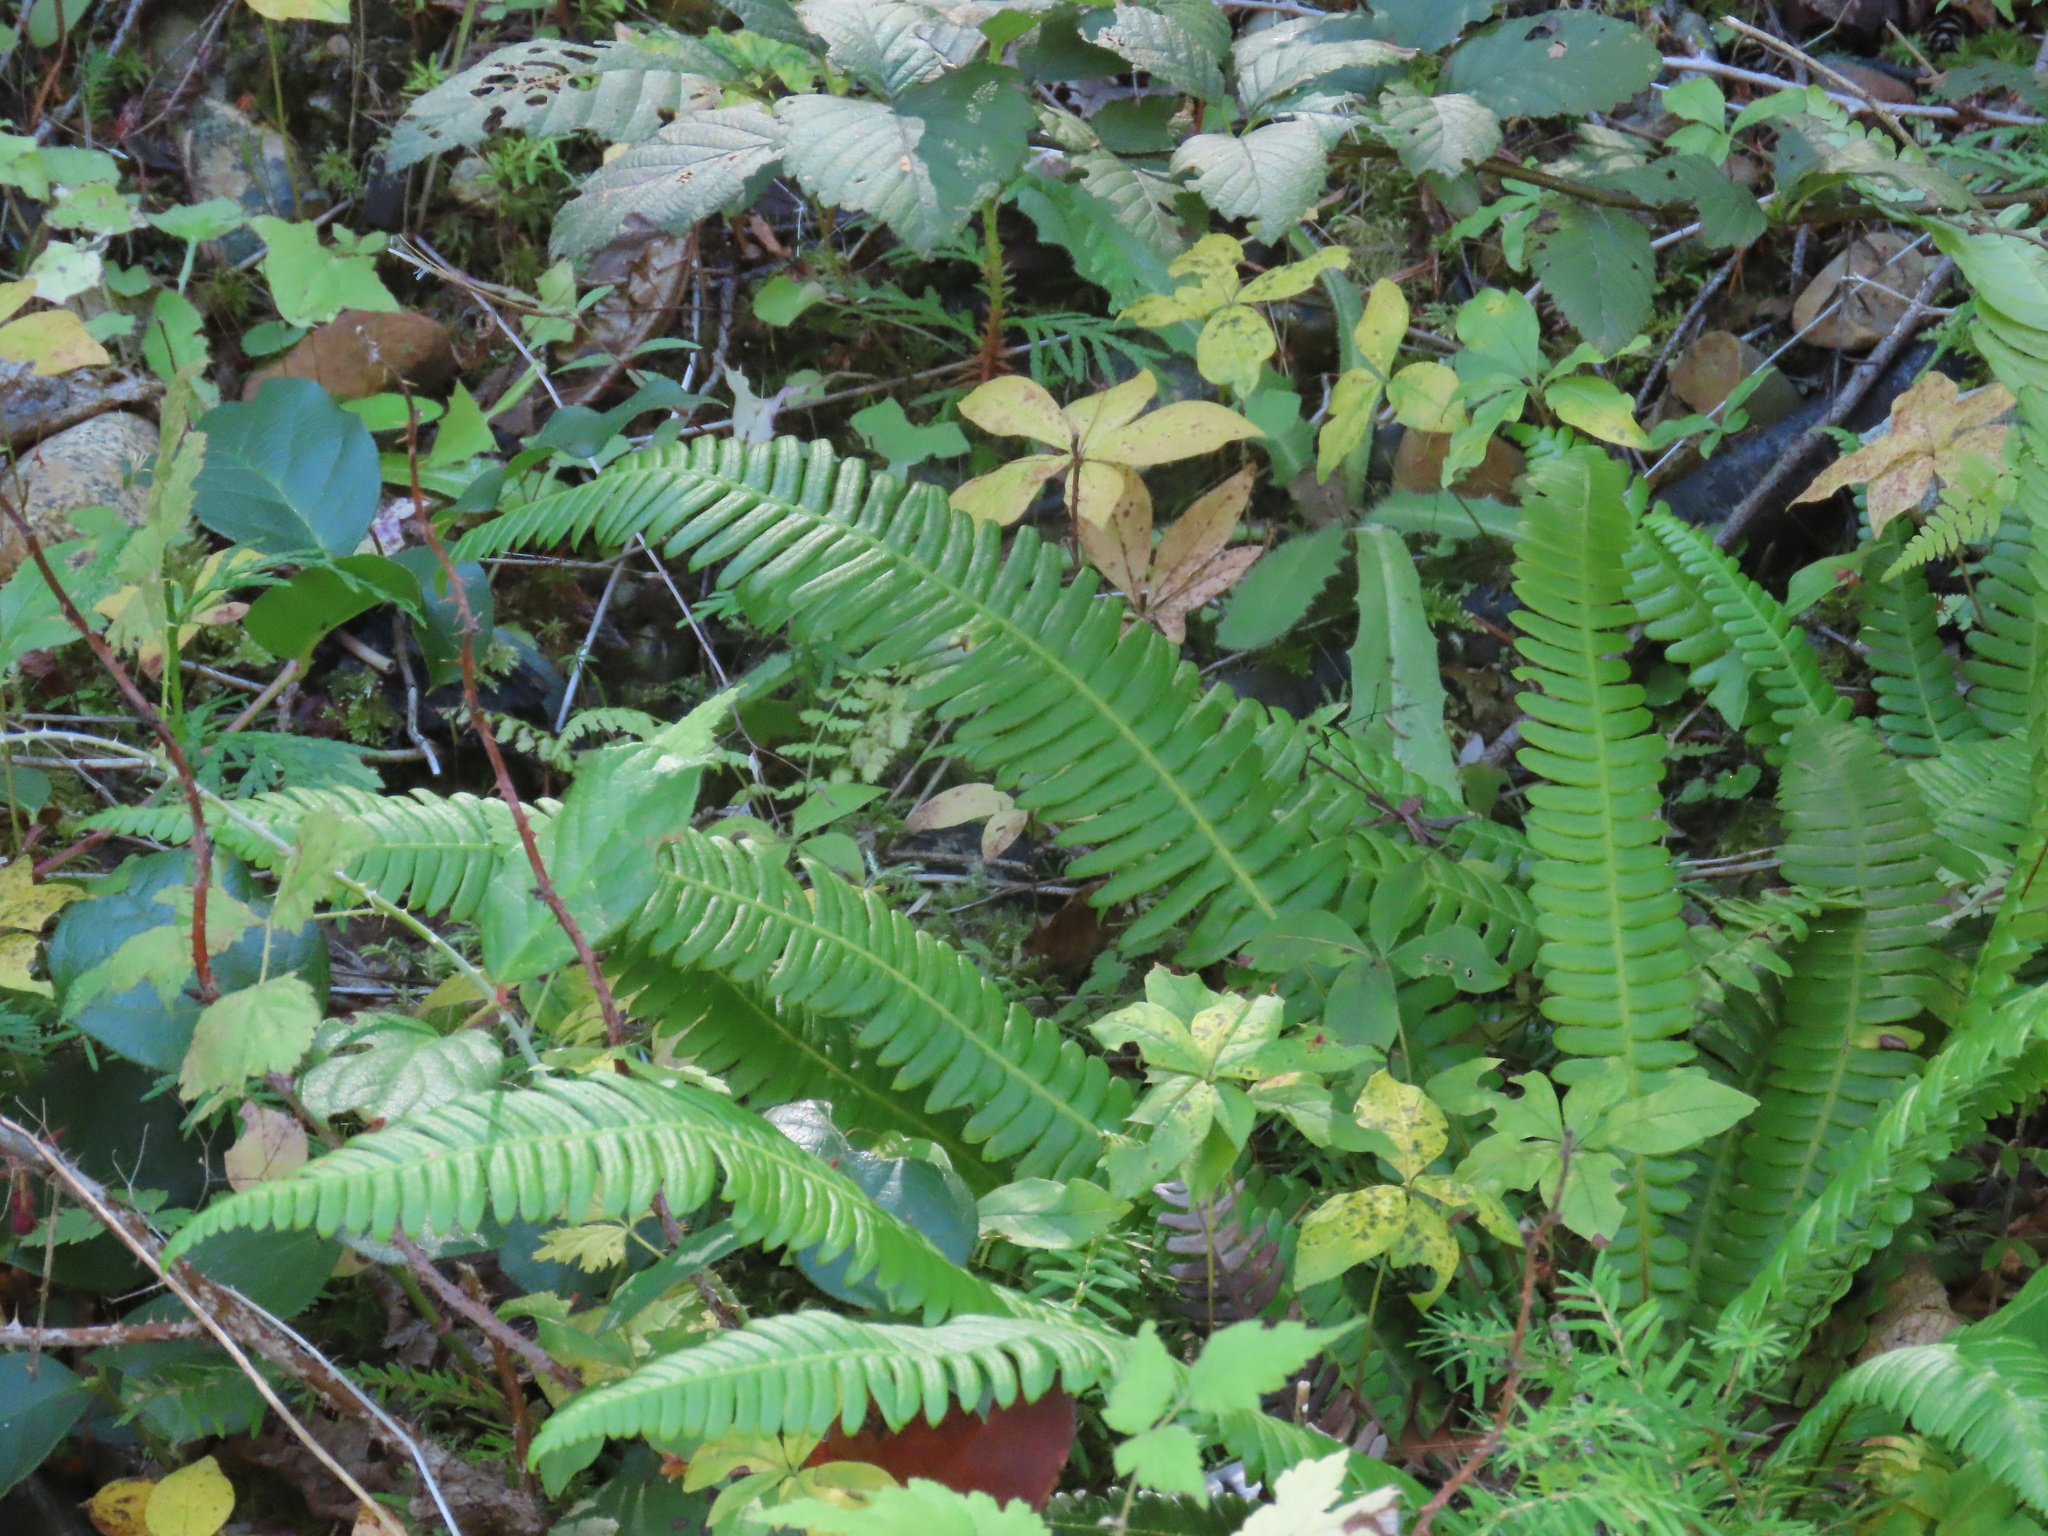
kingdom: Plantae
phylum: Tracheophyta
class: Polypodiopsida
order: Polypodiales
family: Blechnaceae
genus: Struthiopteris
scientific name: Struthiopteris spicant
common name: Deer fern
